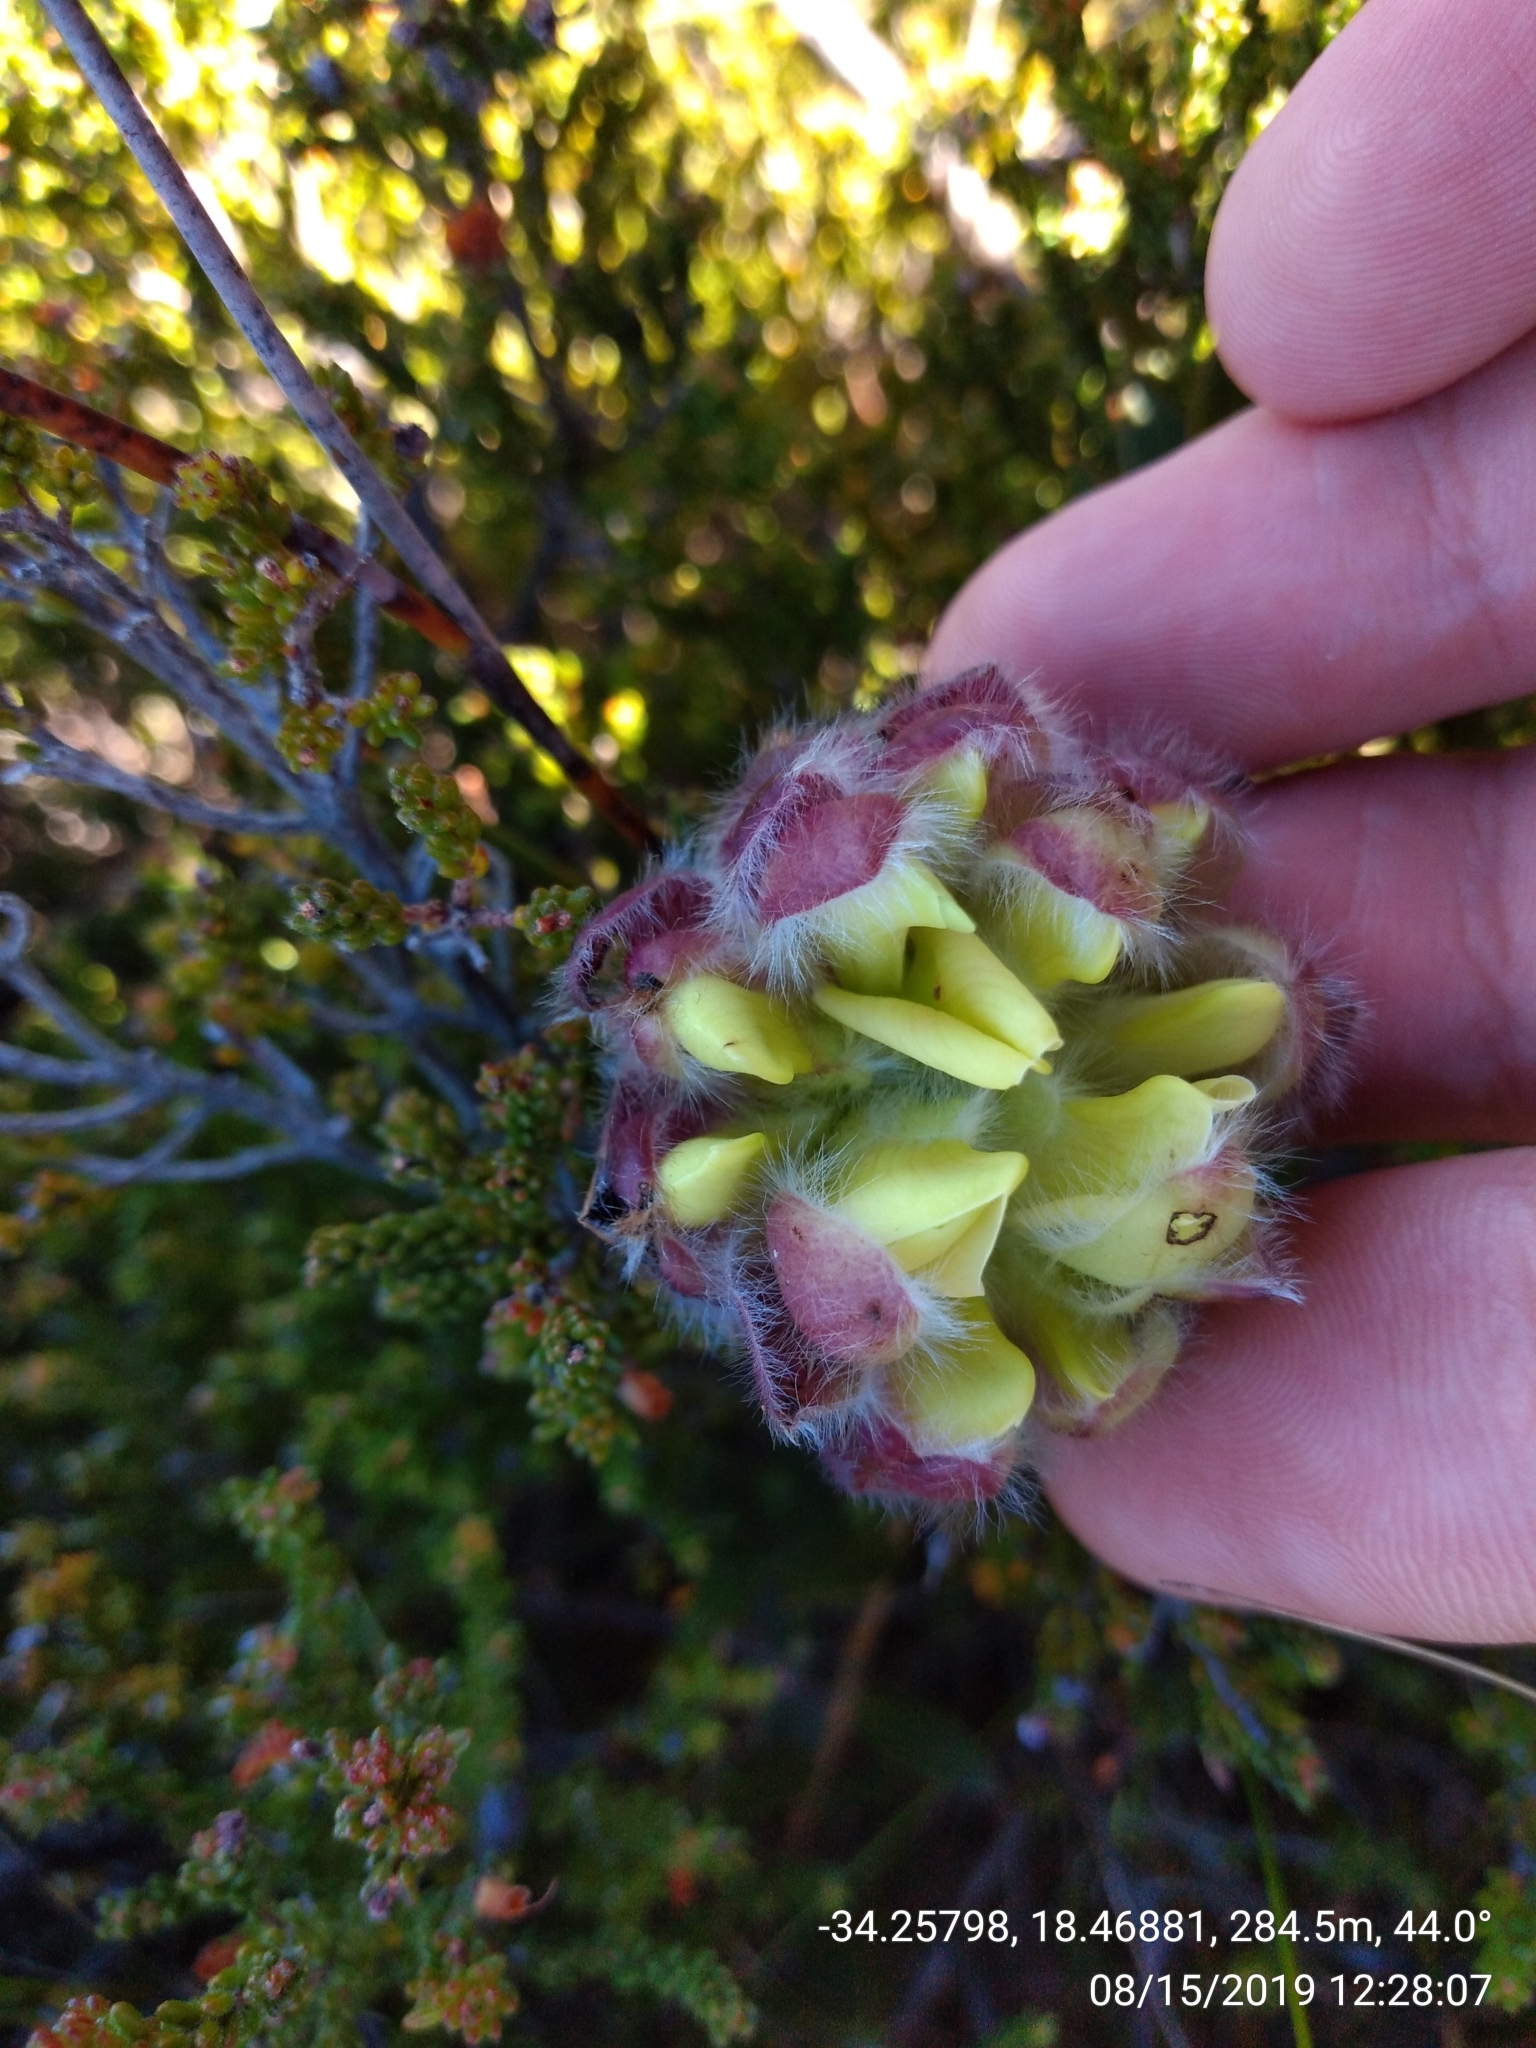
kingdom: Plantae
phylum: Tracheophyta
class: Magnoliopsida
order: Fabales
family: Fabaceae
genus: Liparia
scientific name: Liparia parva
